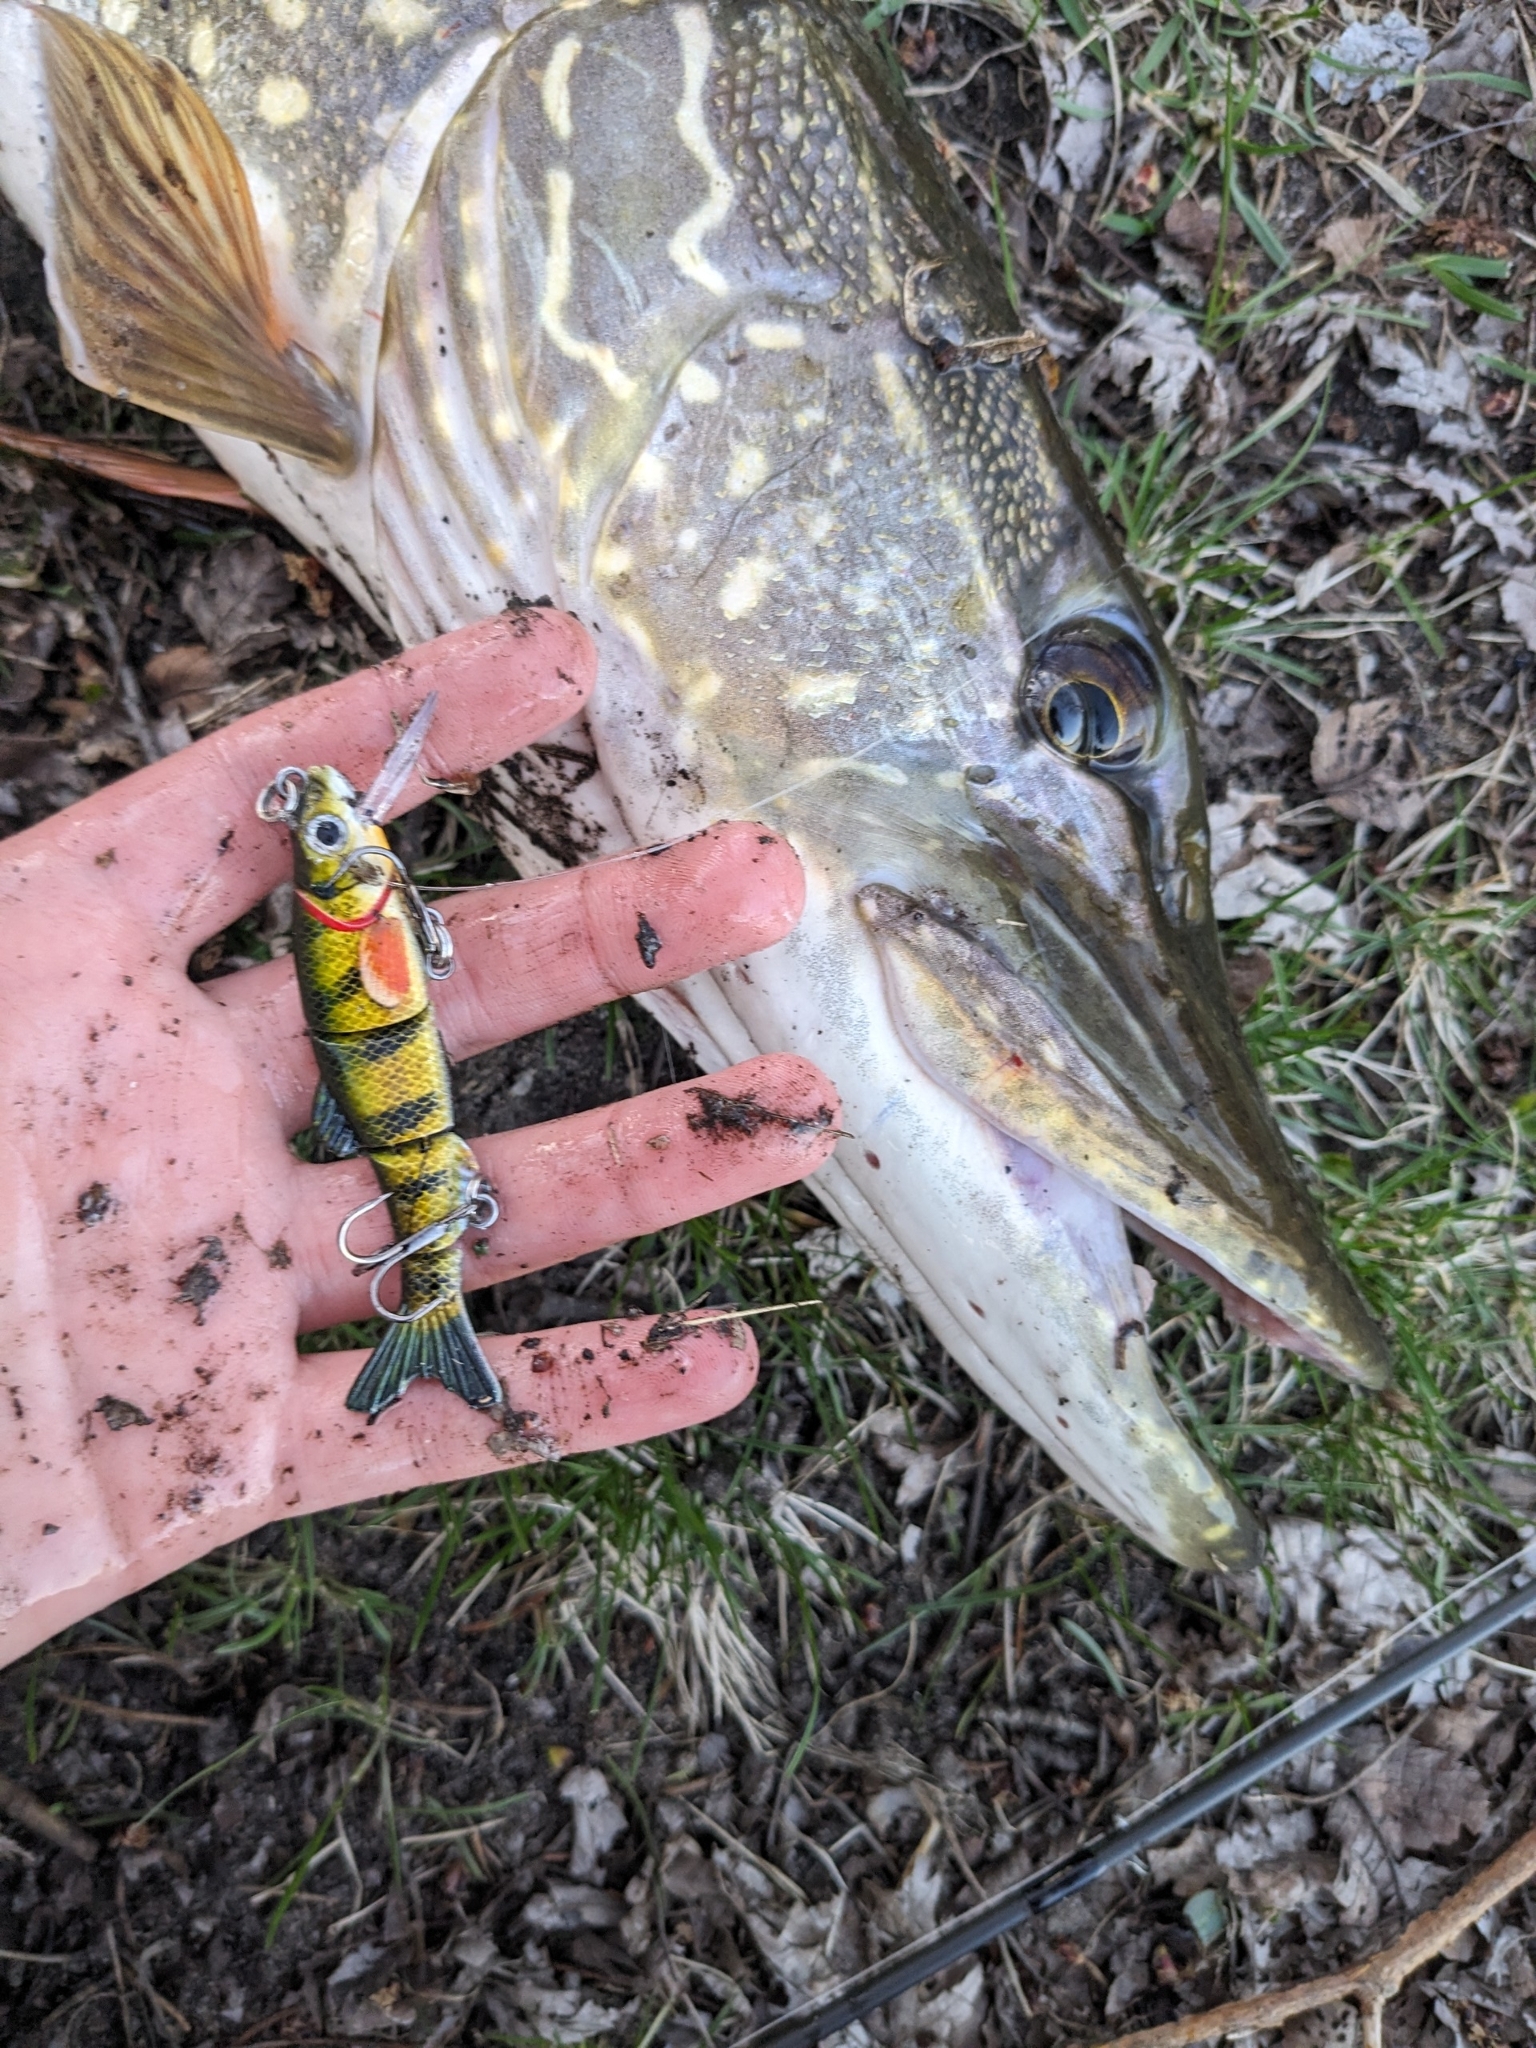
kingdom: Animalia
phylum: Chordata
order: Esociformes
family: Esocidae
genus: Esox
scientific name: Esox lucius
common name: Northern pike
